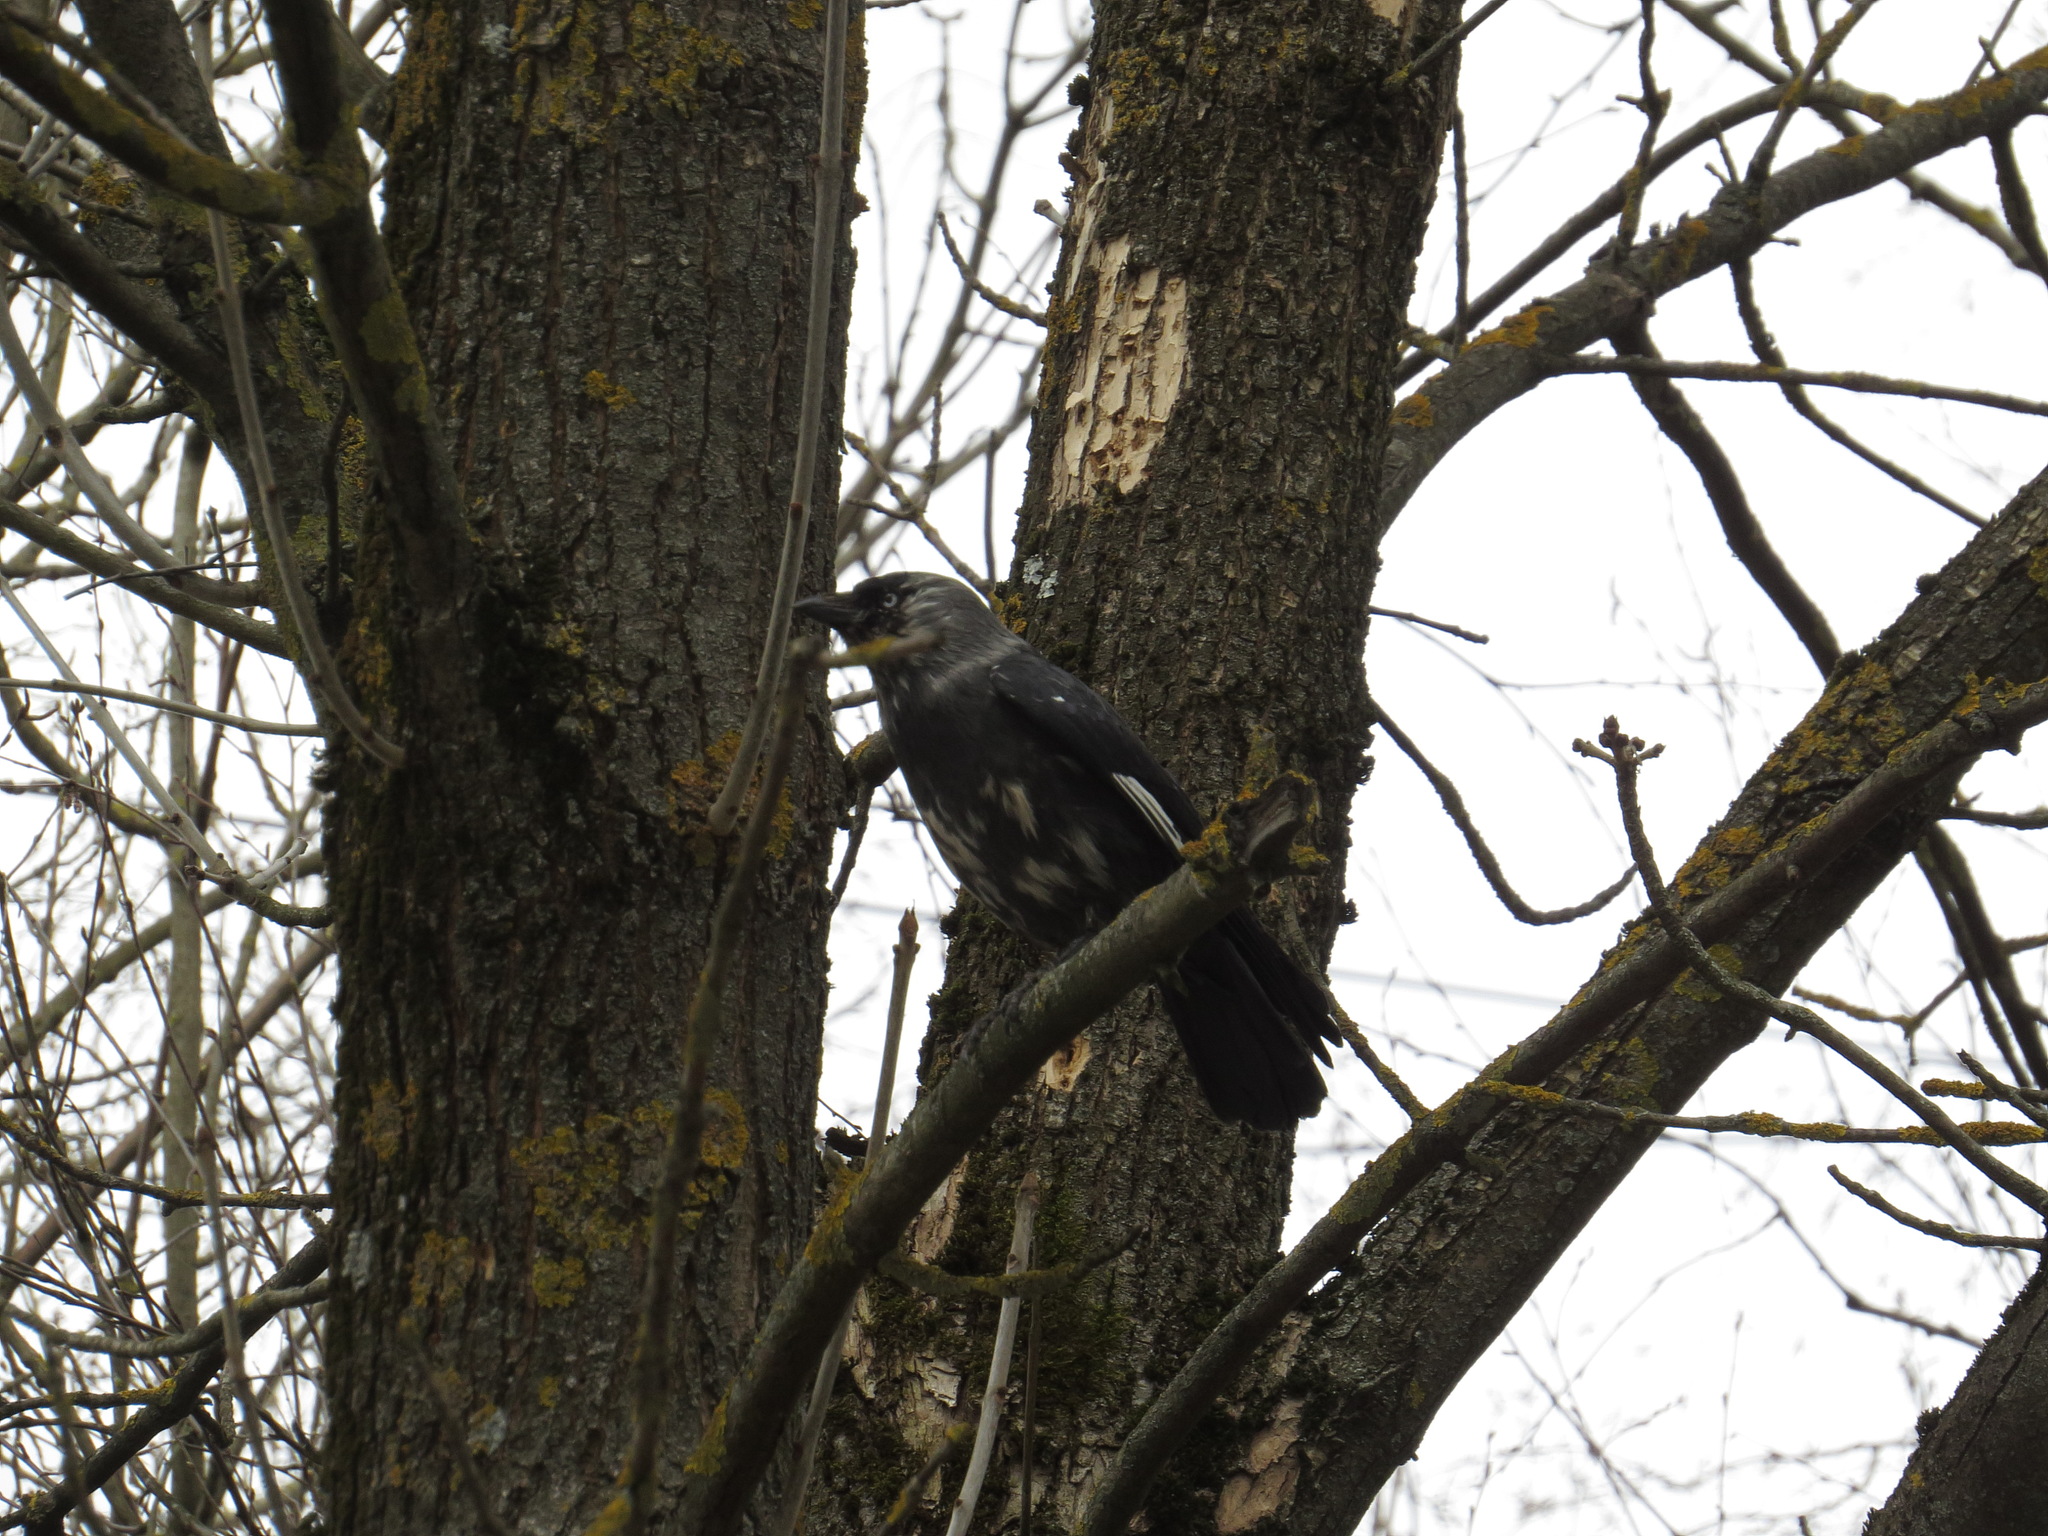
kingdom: Animalia
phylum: Chordata
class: Aves
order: Passeriformes
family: Corvidae
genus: Coloeus
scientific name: Coloeus monedula
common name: Western jackdaw
